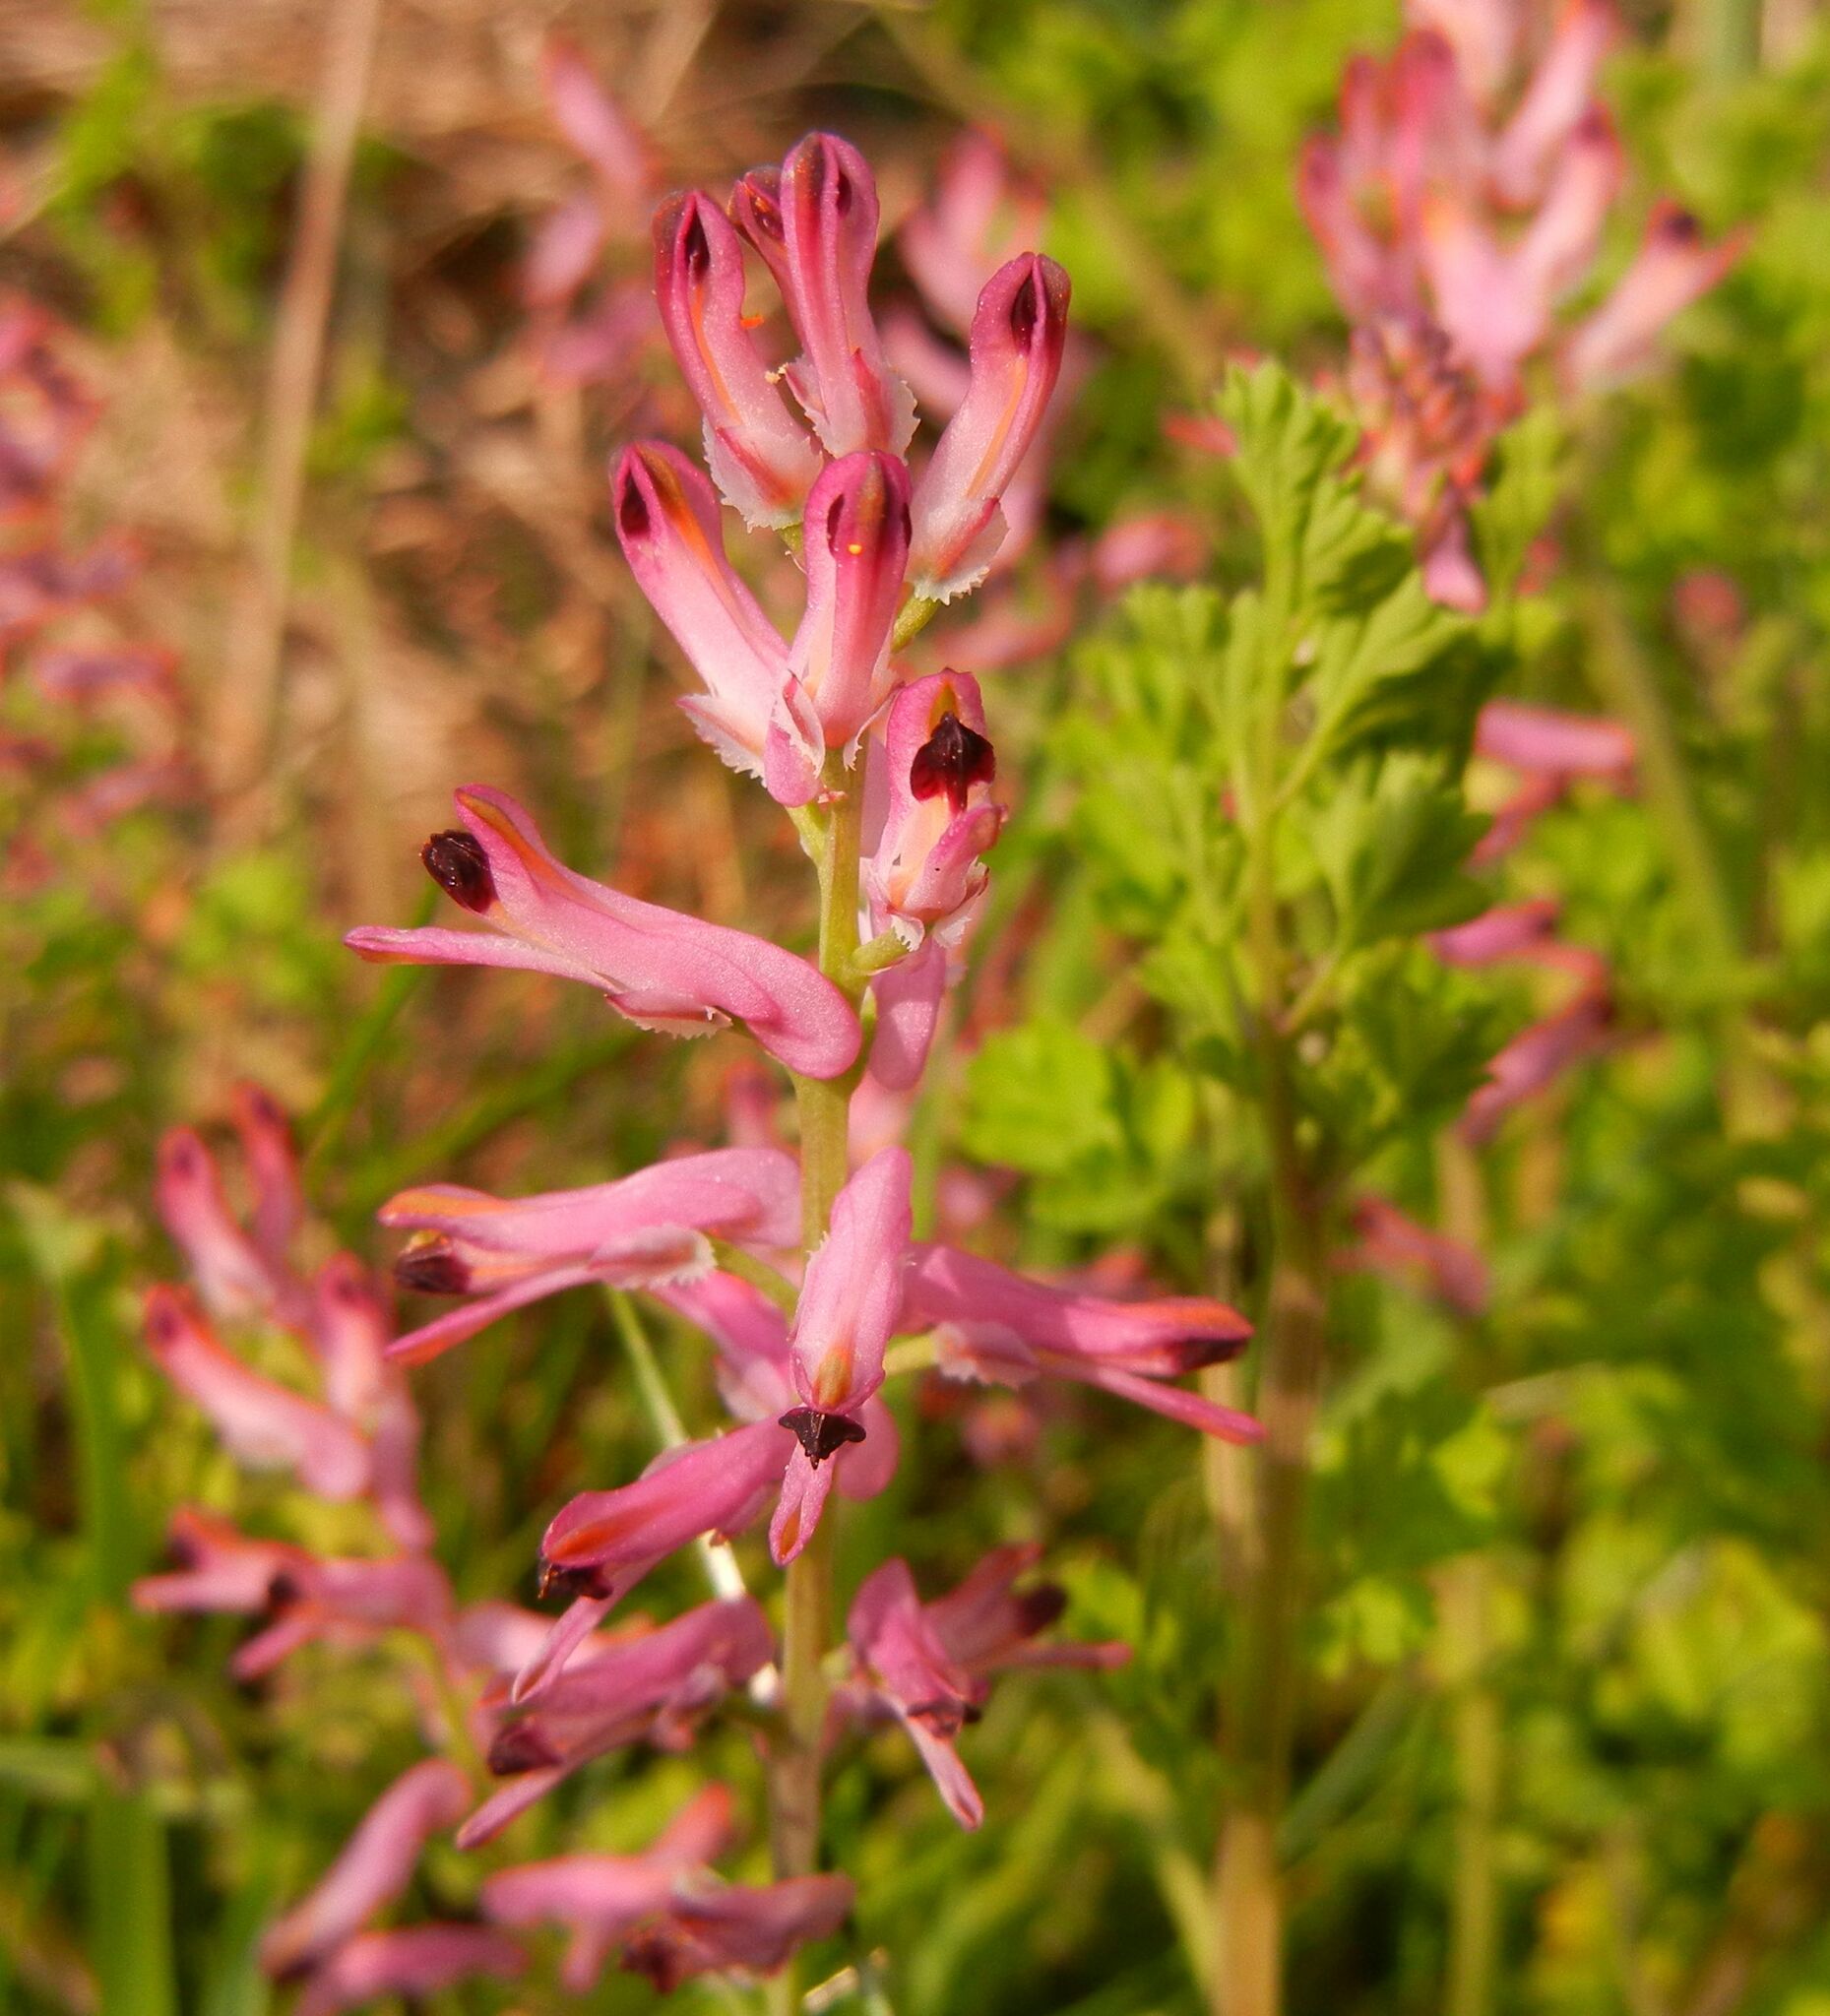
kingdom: Plantae
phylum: Tracheophyta
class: Magnoliopsida
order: Ranunculales
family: Papaveraceae
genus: Fumaria
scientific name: Fumaria bastardii
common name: Tall ramping-fumitory
